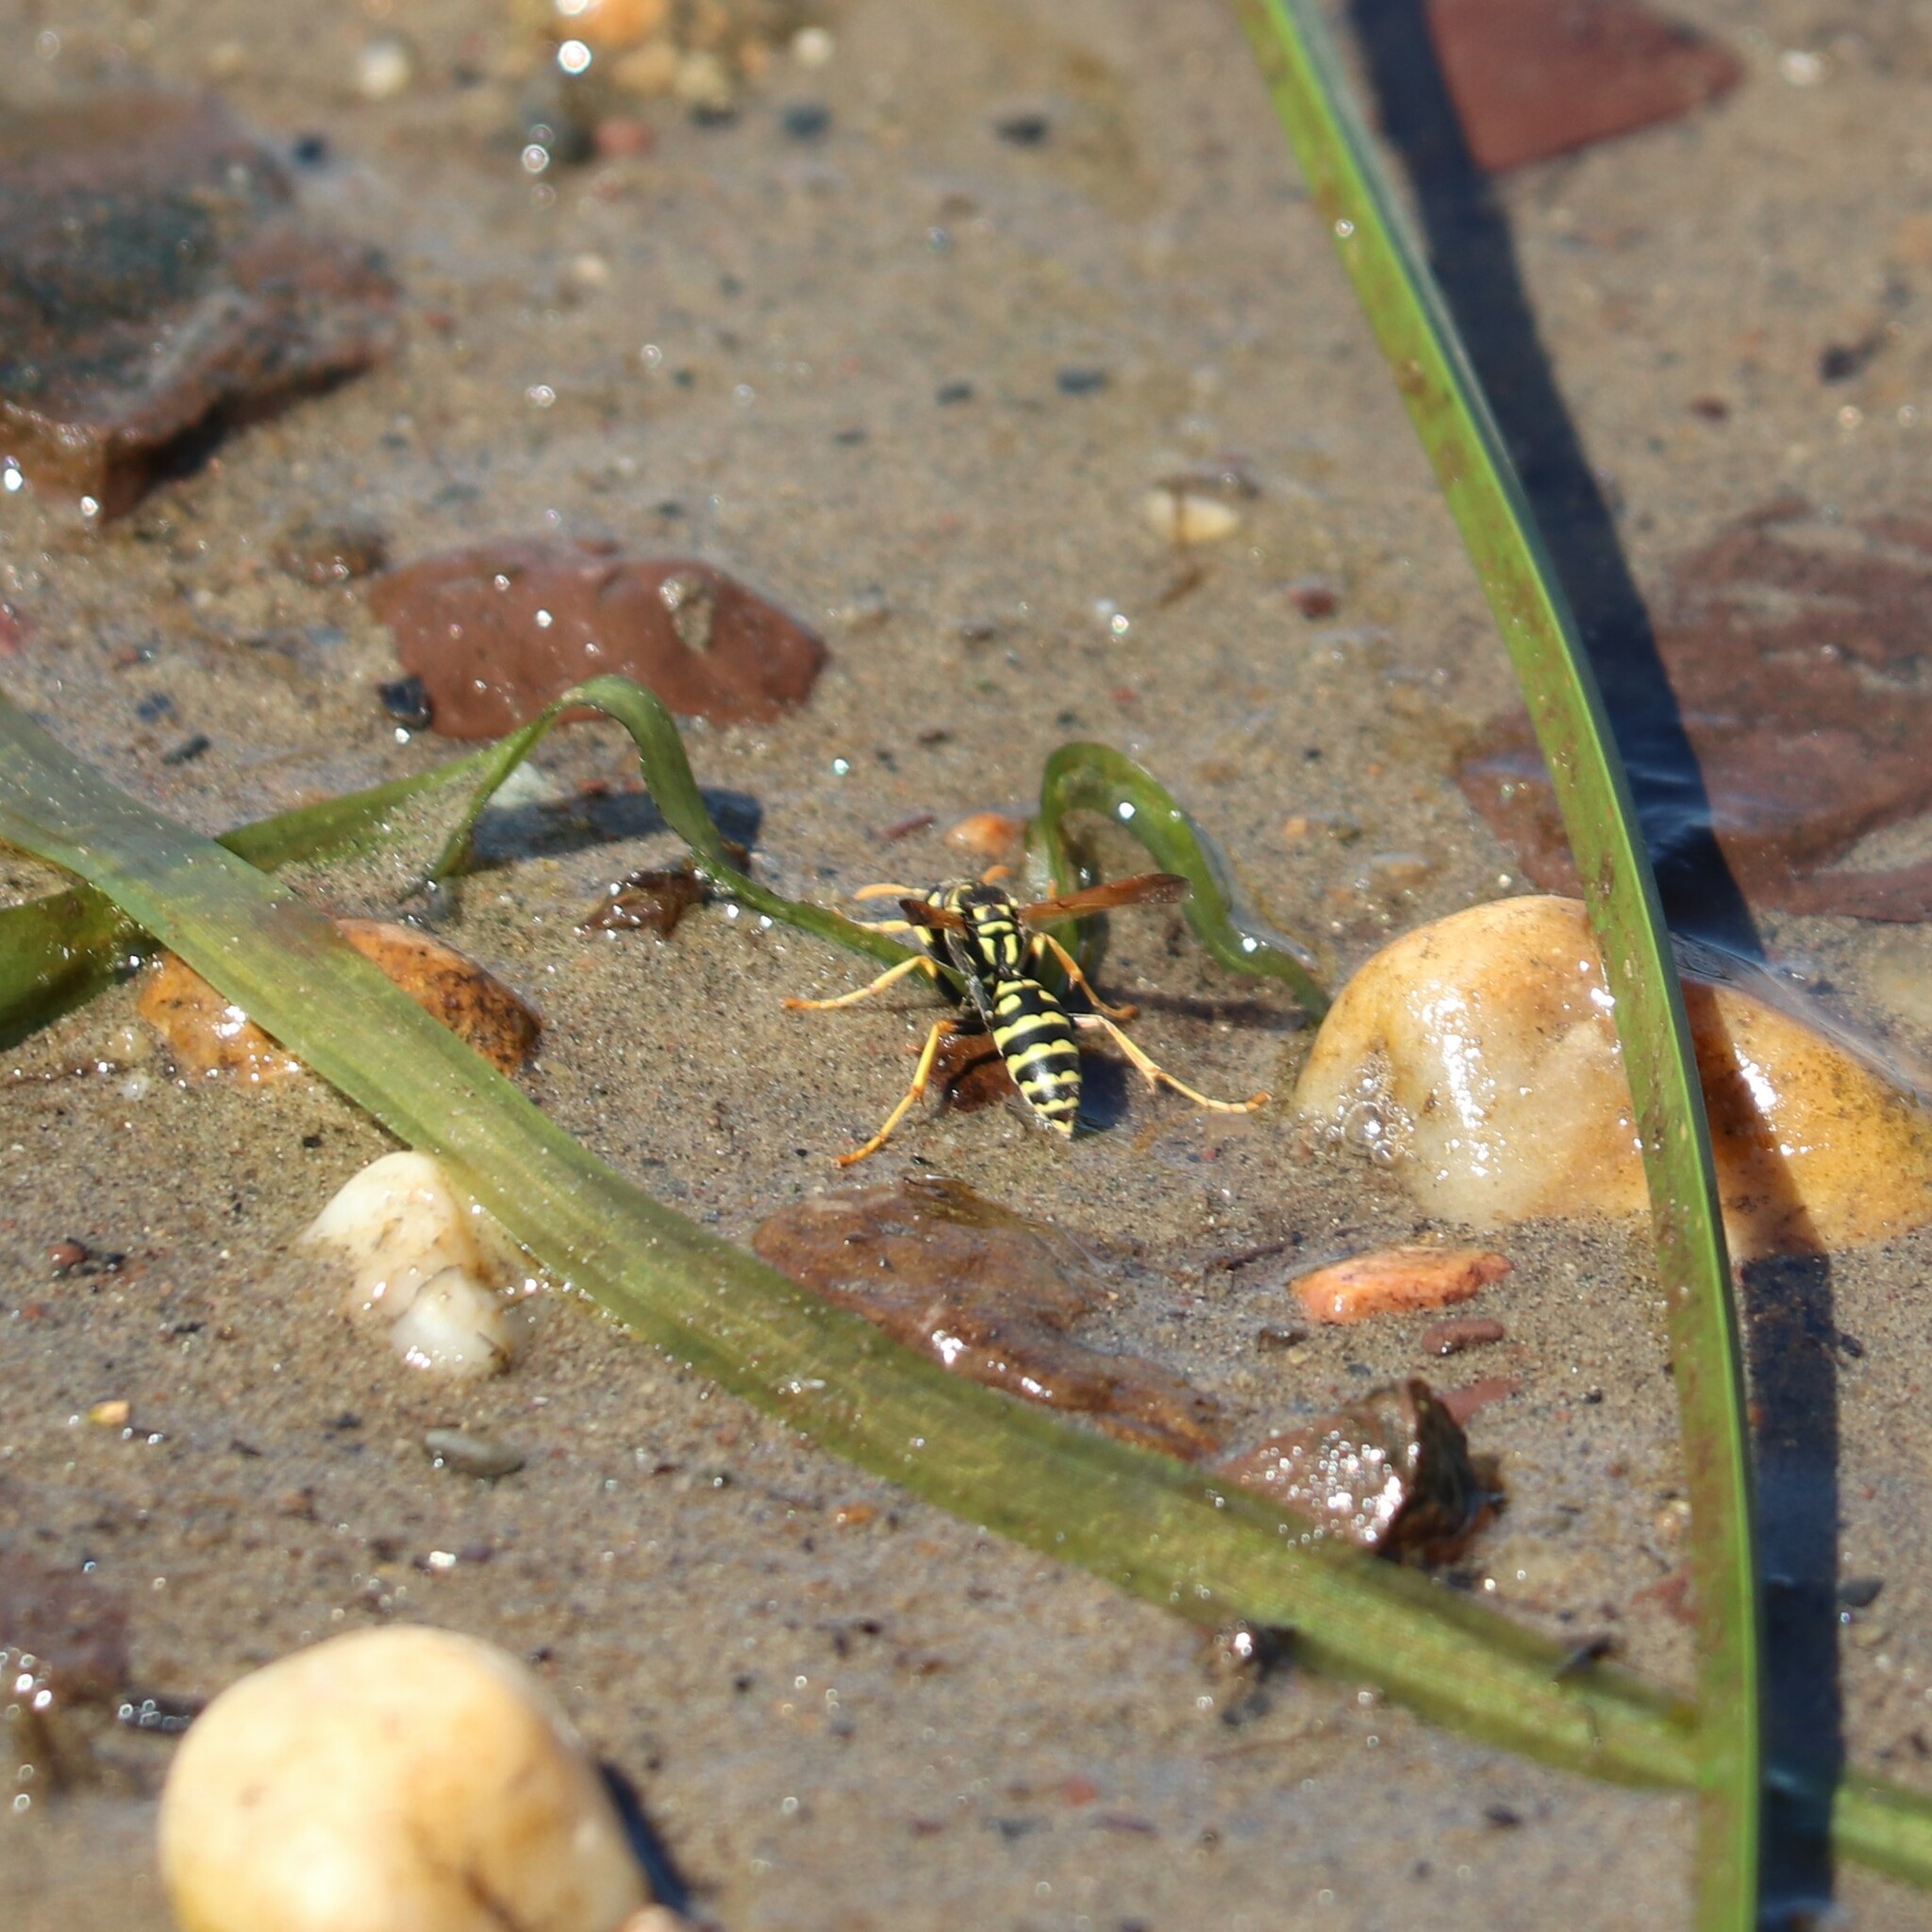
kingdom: Animalia
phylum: Arthropoda
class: Insecta
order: Hymenoptera
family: Eumenidae
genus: Polistes
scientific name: Polistes dominula
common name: Paper wasp
